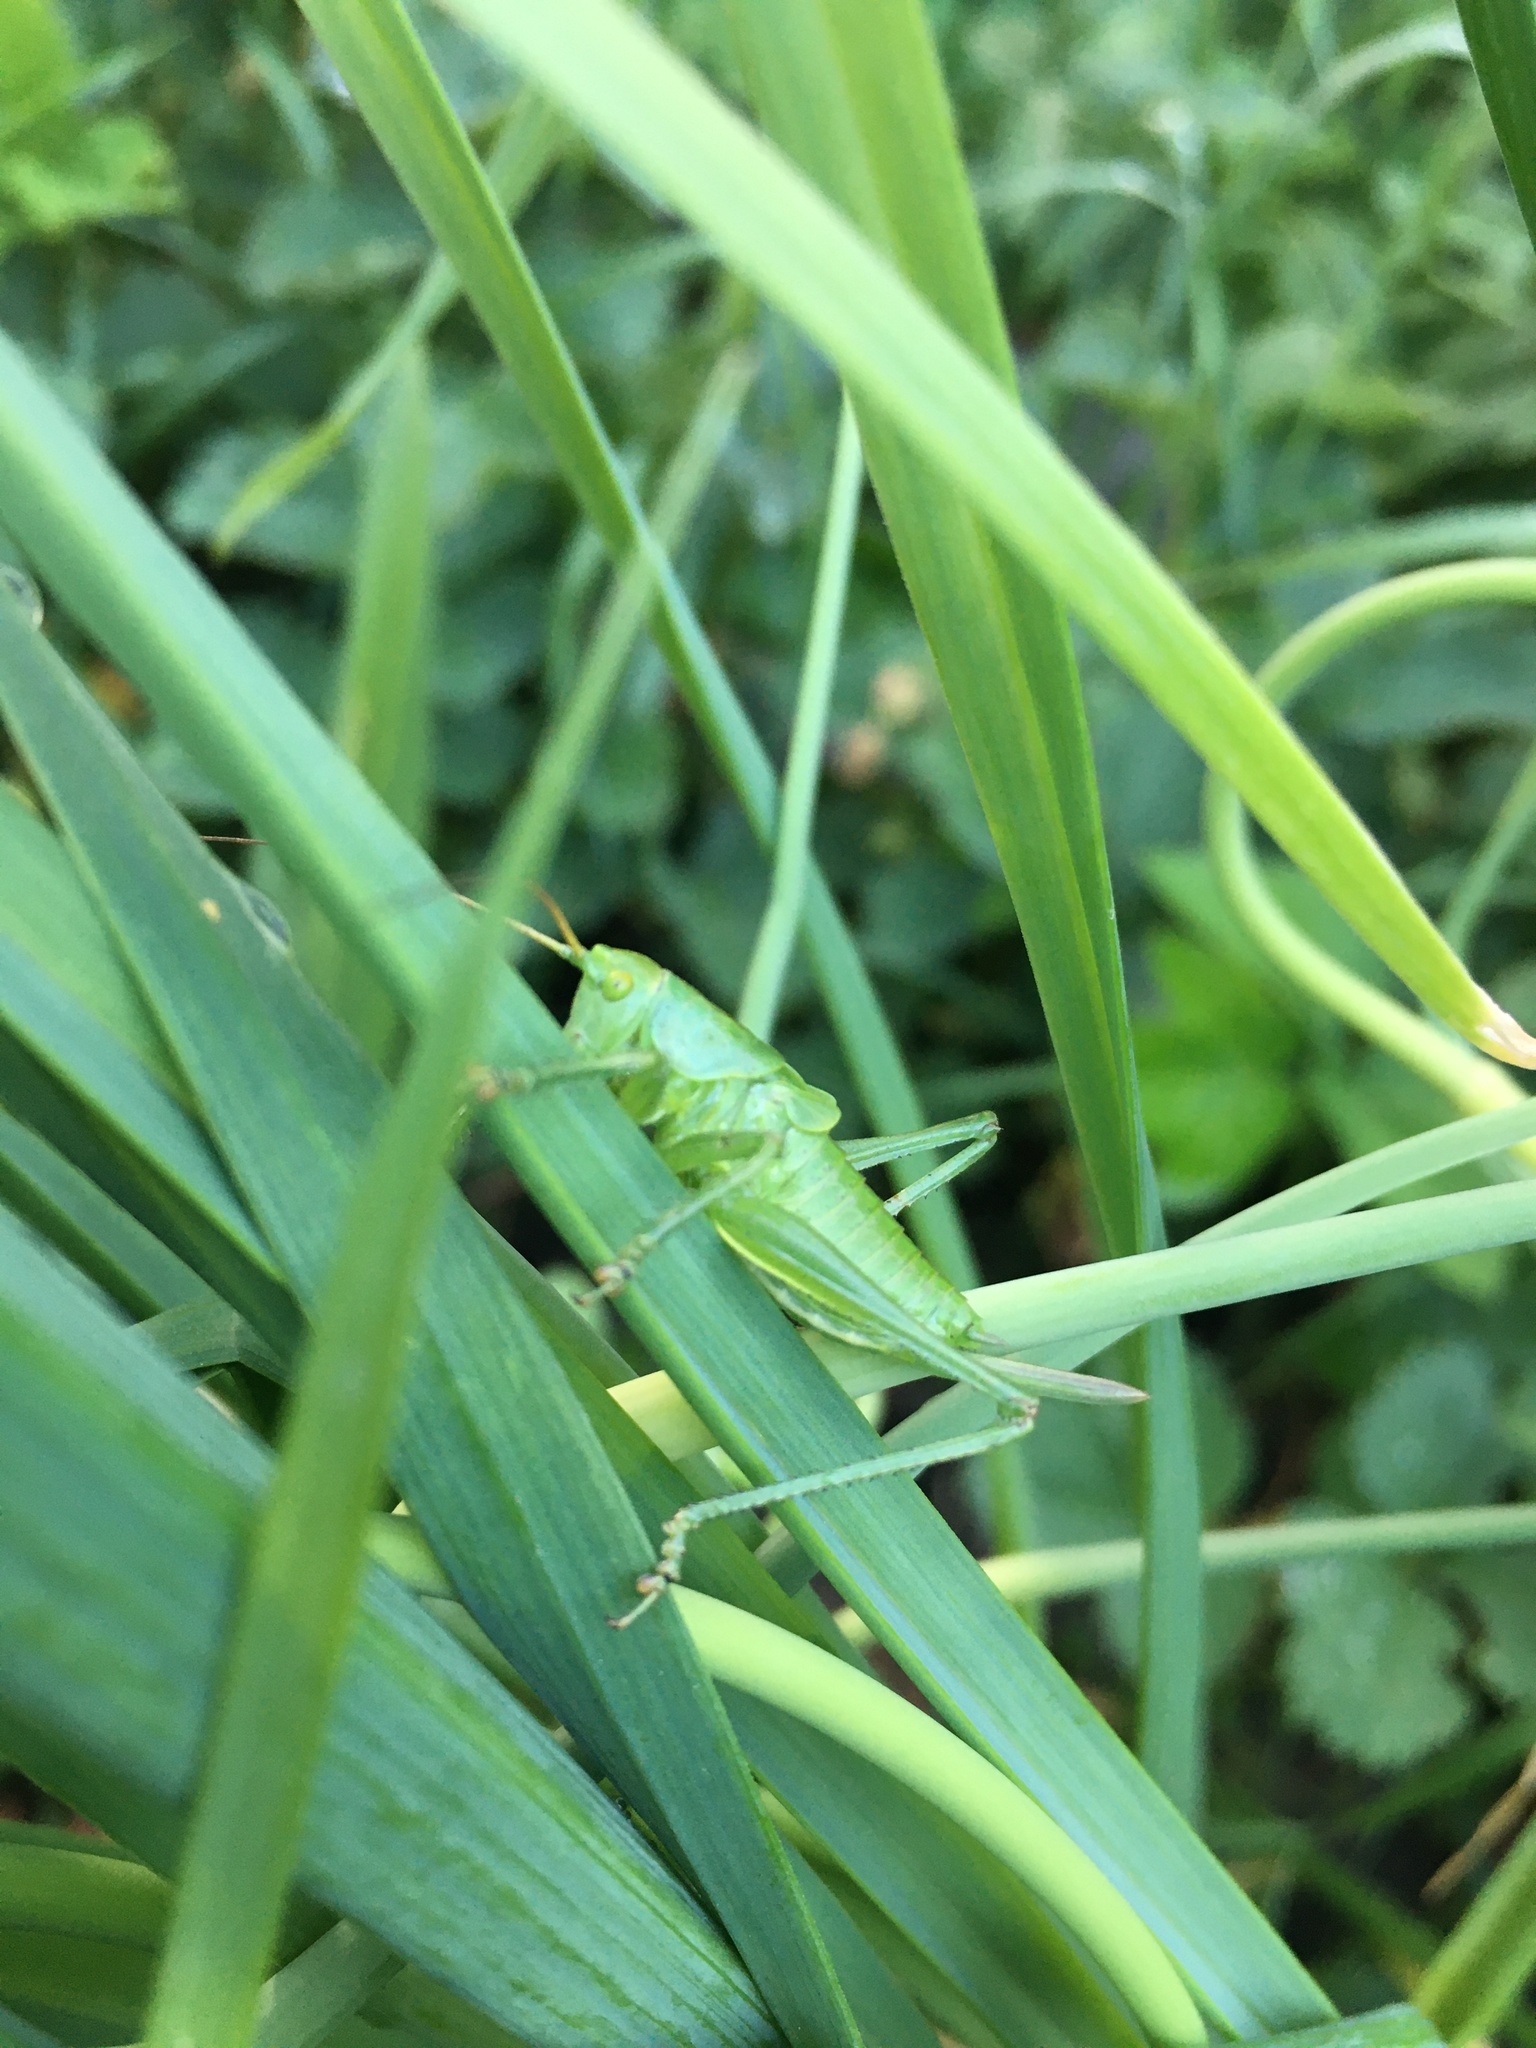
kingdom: Animalia
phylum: Arthropoda
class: Insecta
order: Orthoptera
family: Tettigoniidae
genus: Tettigonia
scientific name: Tettigonia cantans
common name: Upland green bush-cricket
